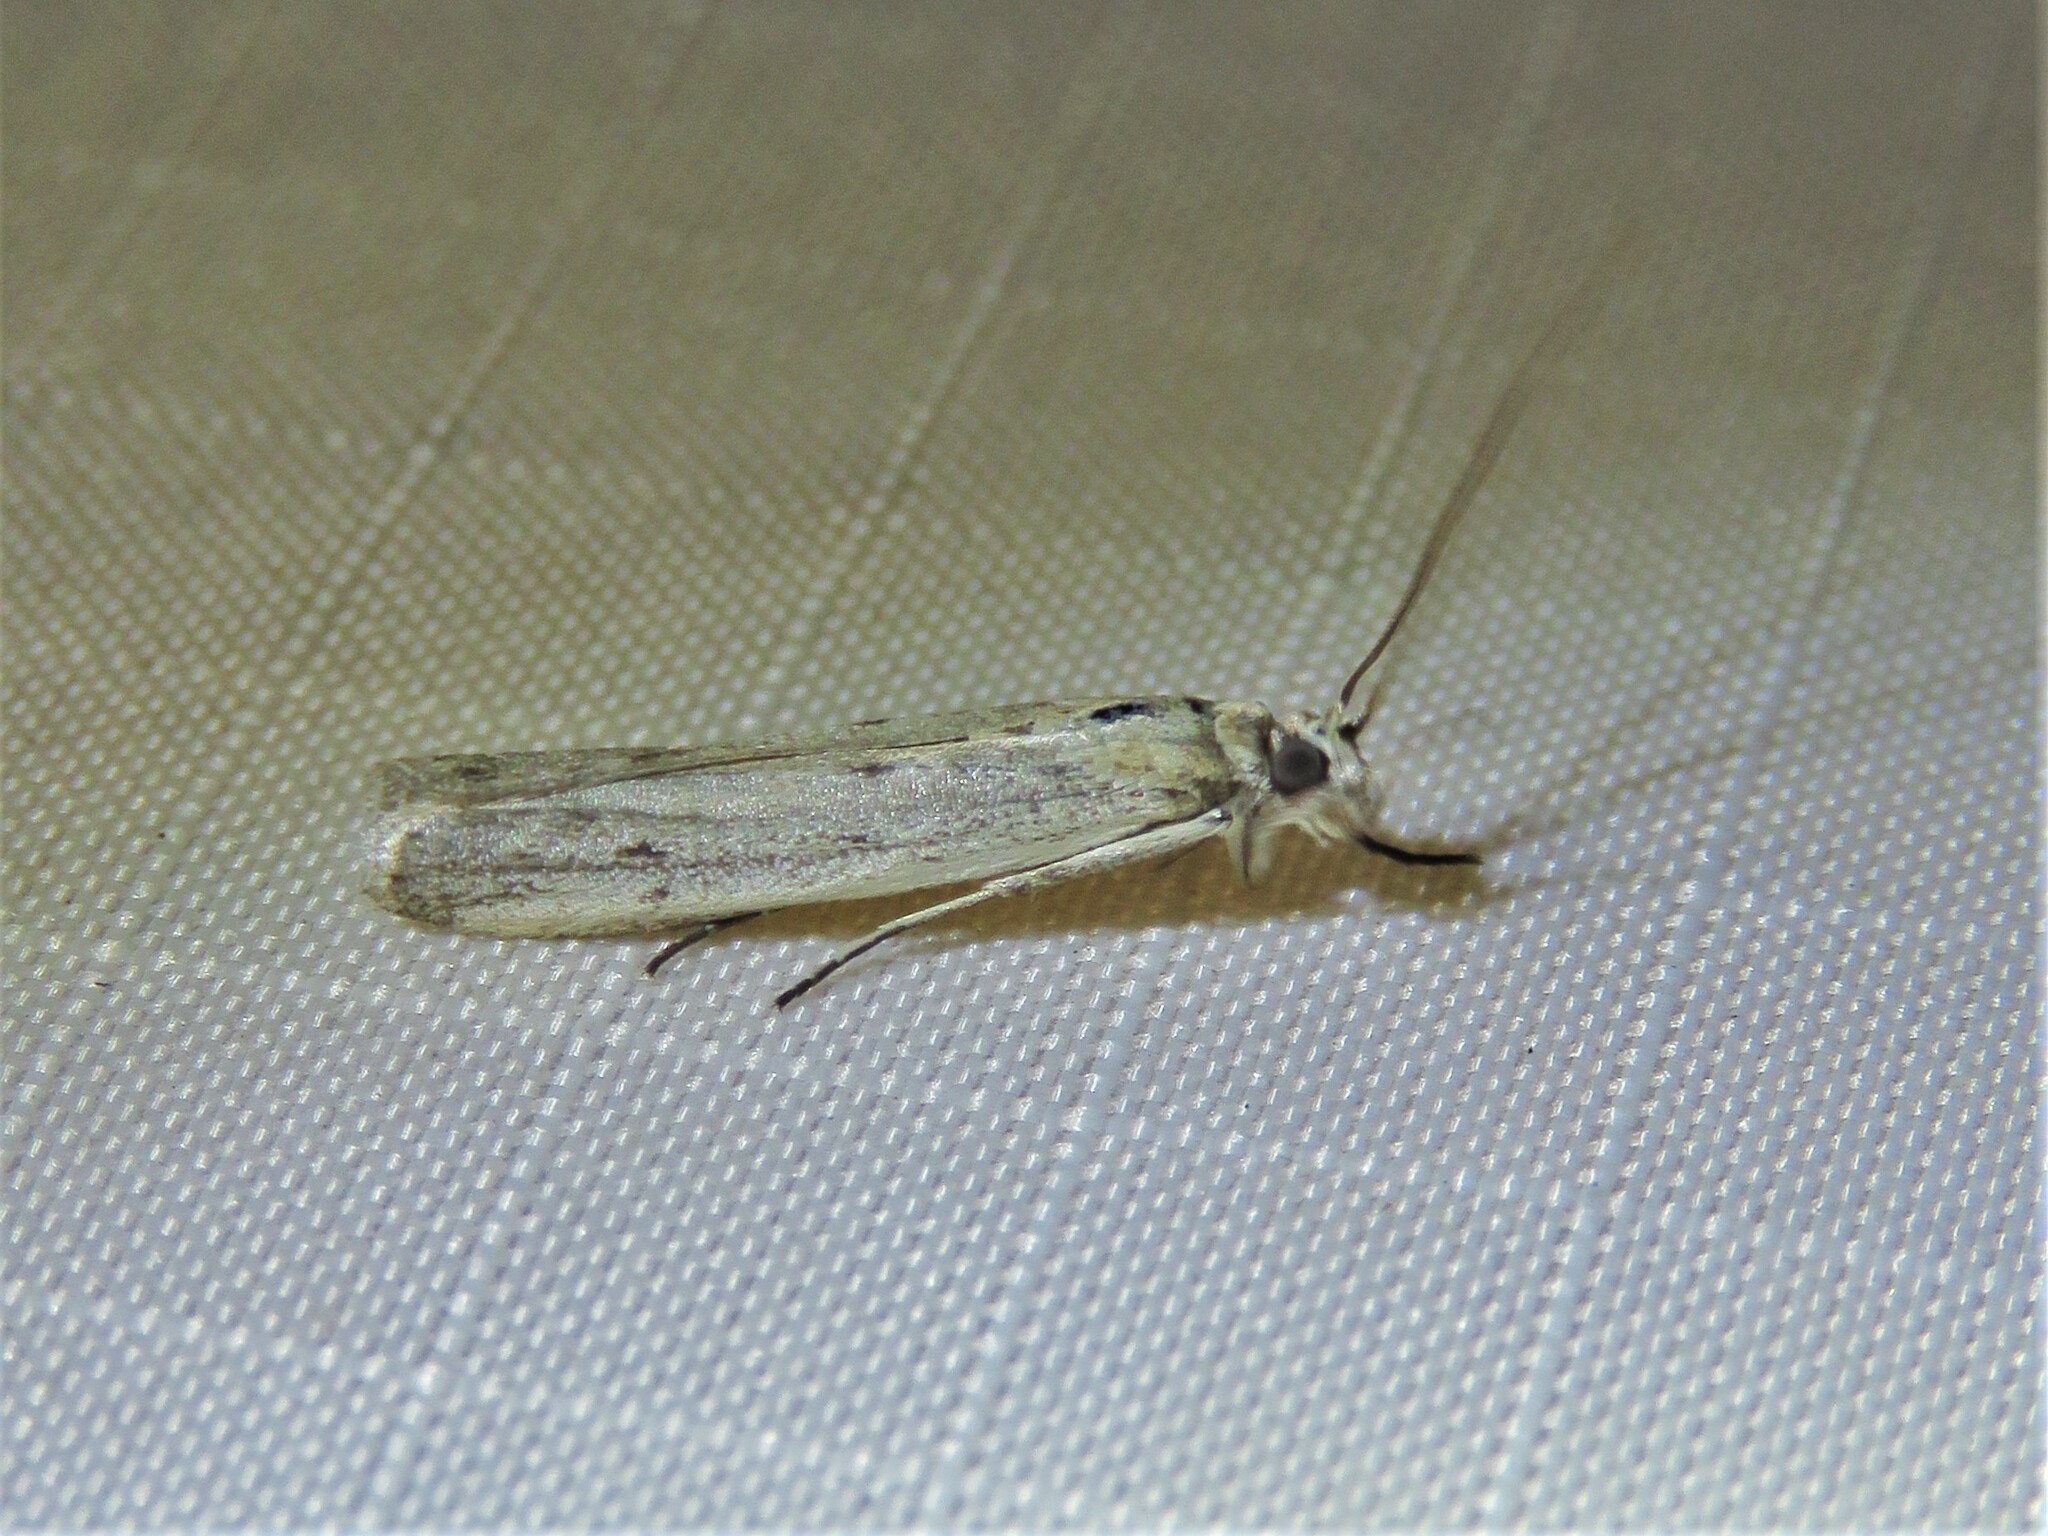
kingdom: Animalia
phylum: Arthropoda
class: Insecta
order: Lepidoptera
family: Pyralidae
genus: Homoeosoma
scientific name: Homoeosoma electella
